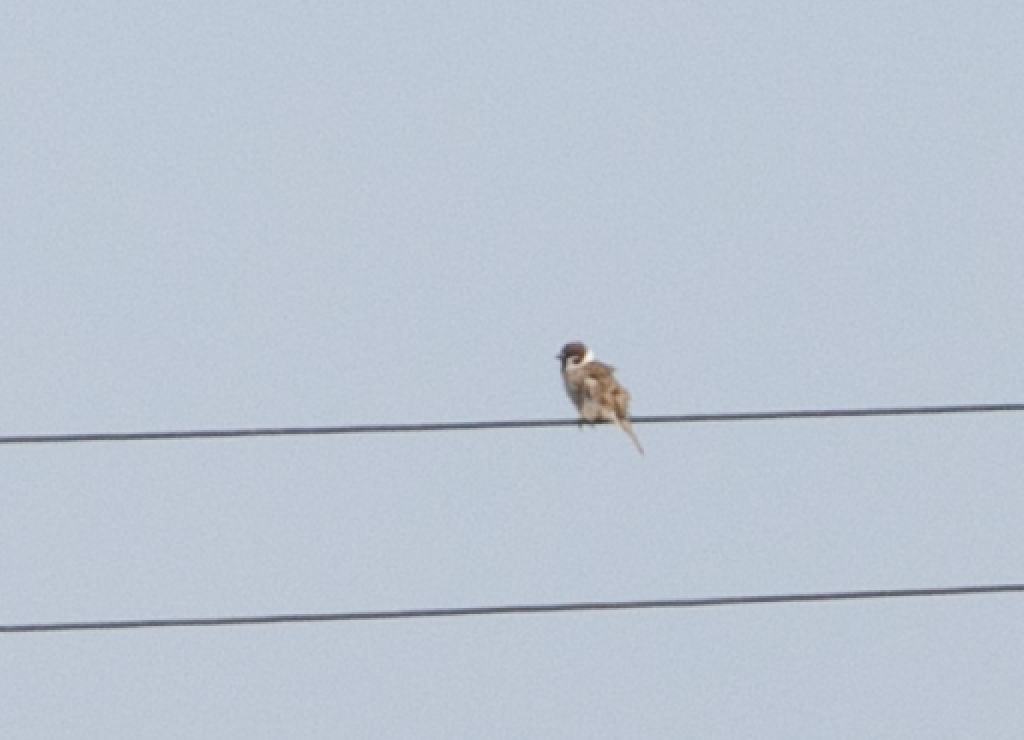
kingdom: Animalia
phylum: Chordata
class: Aves
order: Passeriformes
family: Passeridae
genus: Passer
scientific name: Passer montanus
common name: Eurasian tree sparrow
